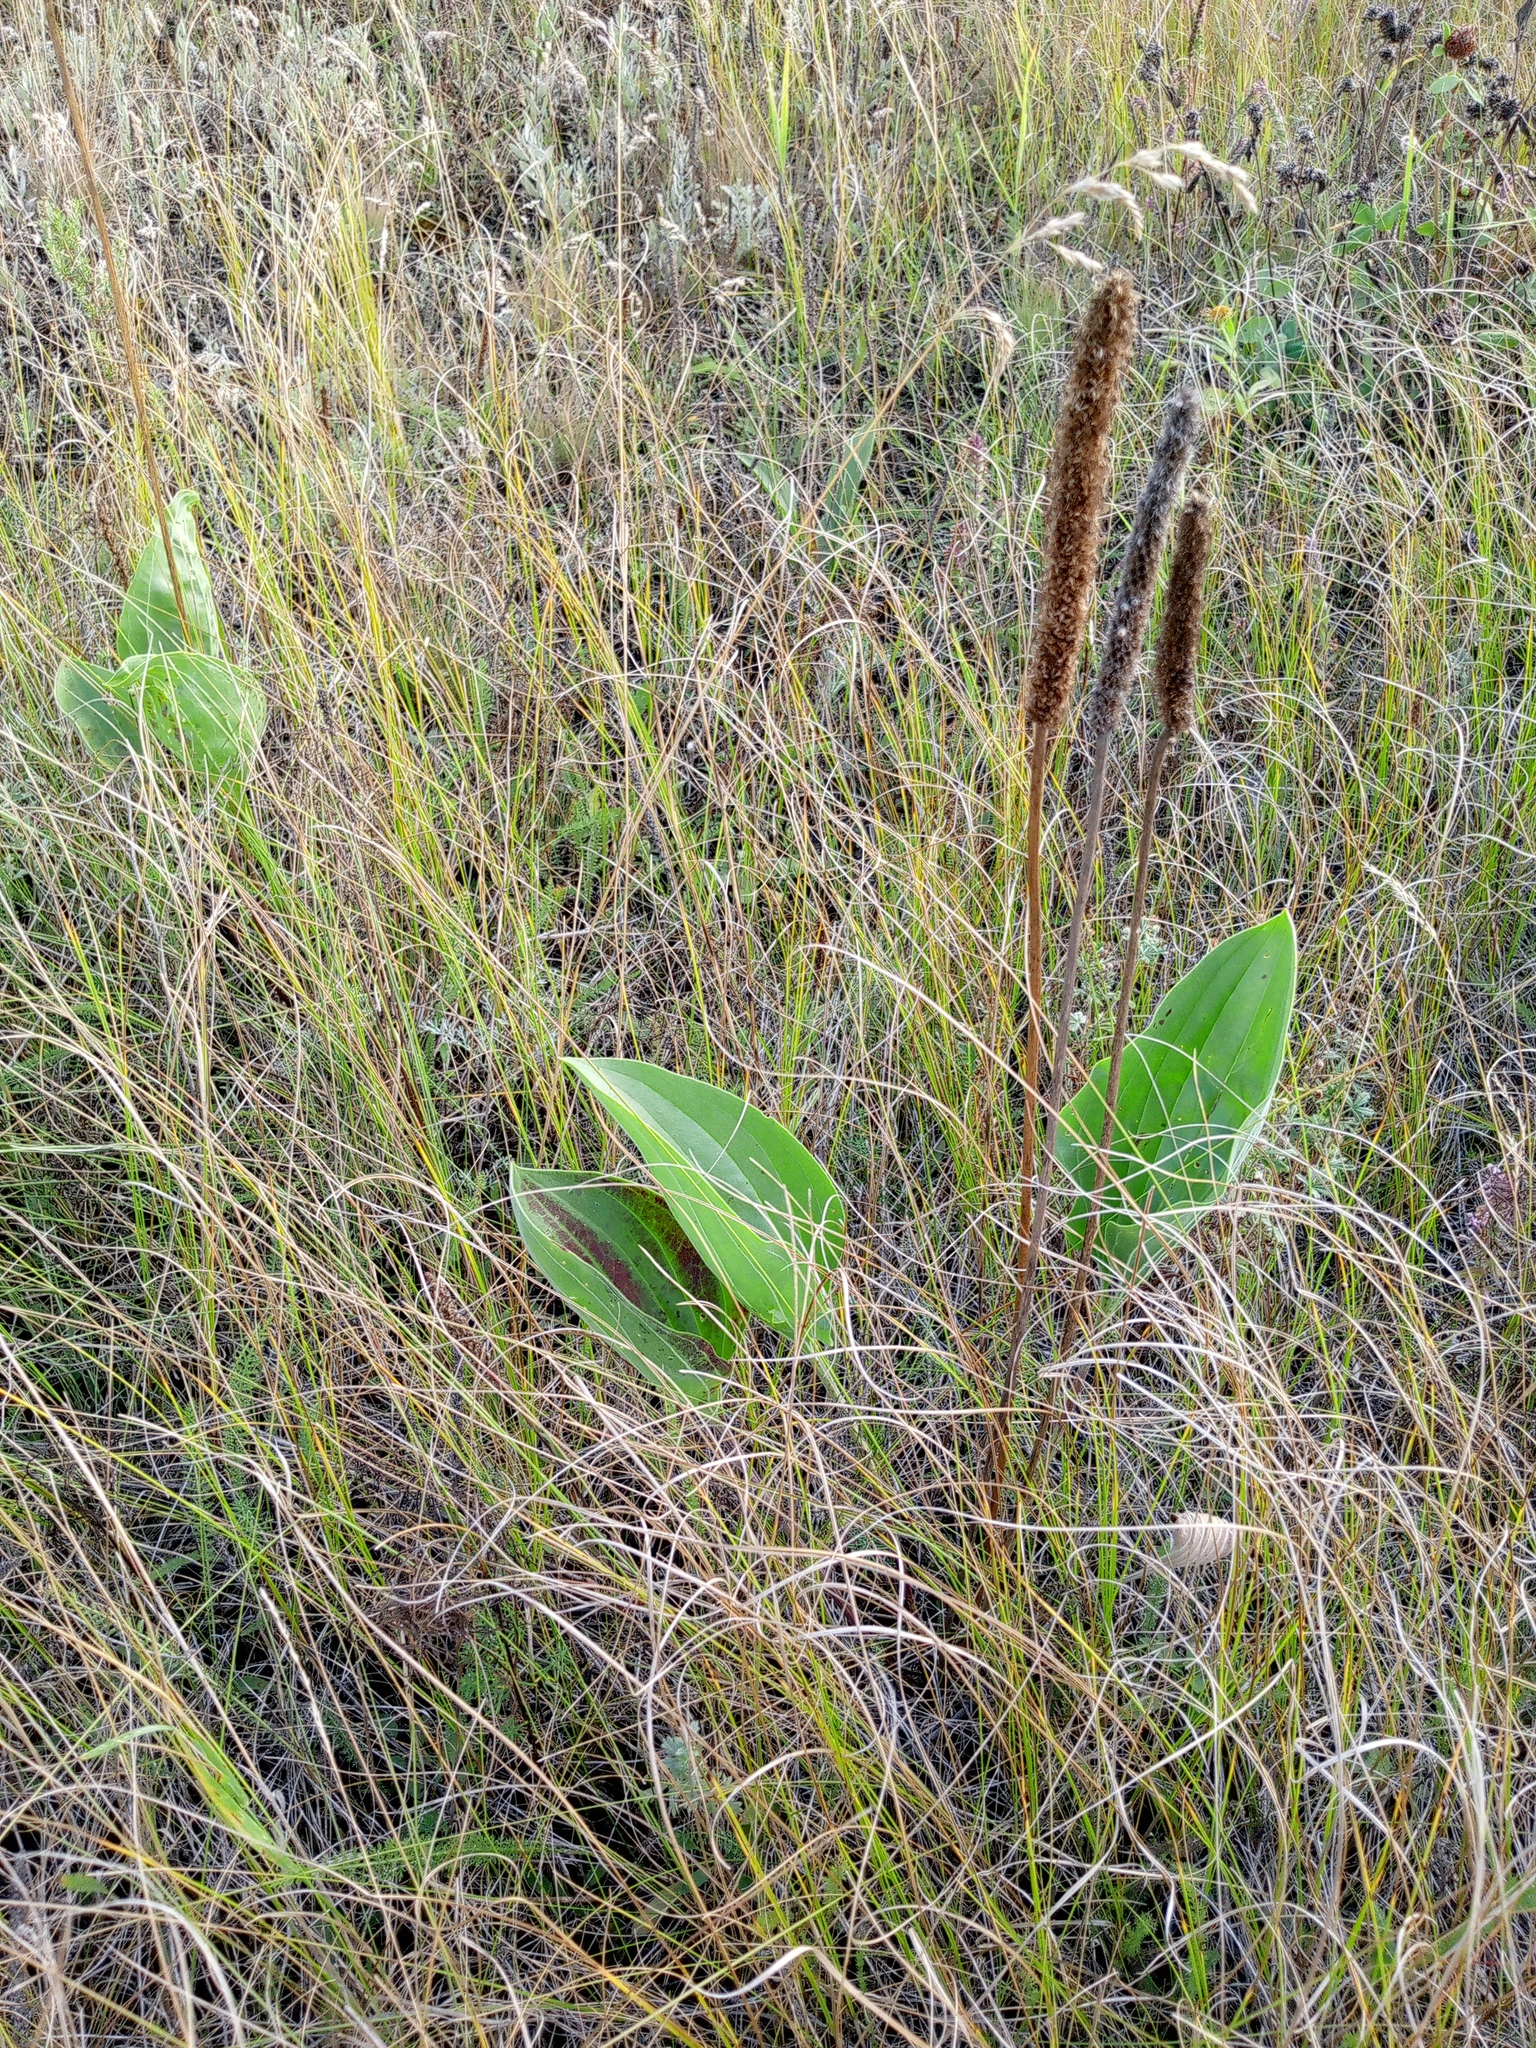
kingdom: Plantae
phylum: Tracheophyta
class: Magnoliopsida
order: Lamiales
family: Plantaginaceae
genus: Plantago
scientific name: Plantago maxima
